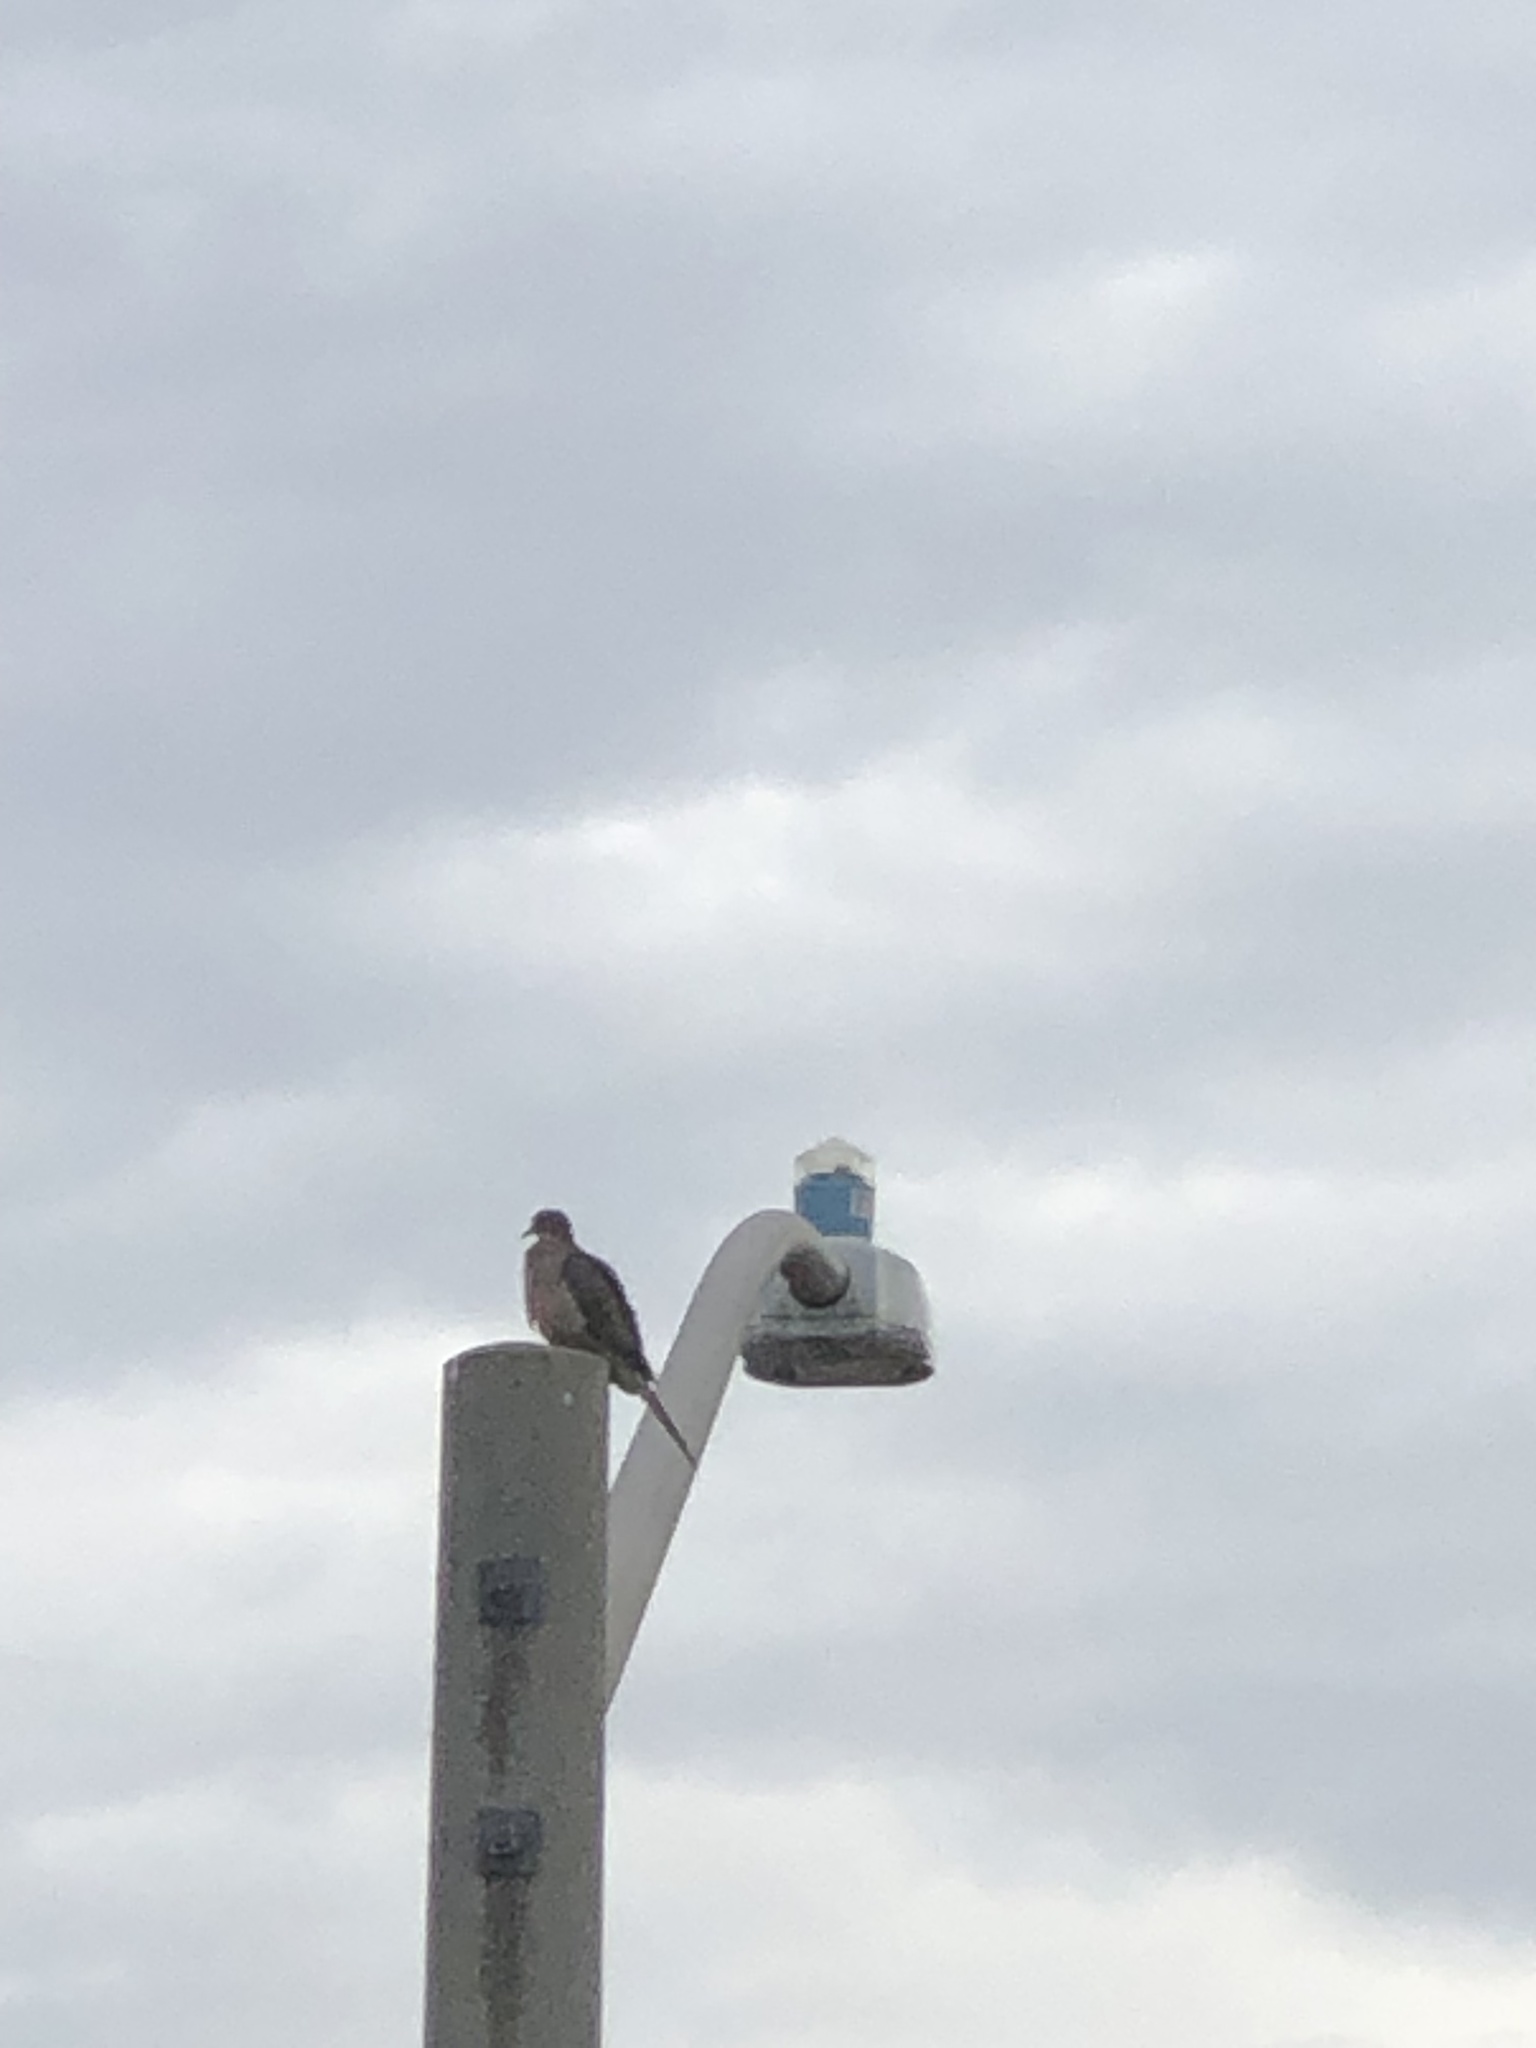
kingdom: Animalia
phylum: Chordata
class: Aves
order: Columbiformes
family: Columbidae
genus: Zenaida
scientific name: Zenaida macroura
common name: Mourning dove
